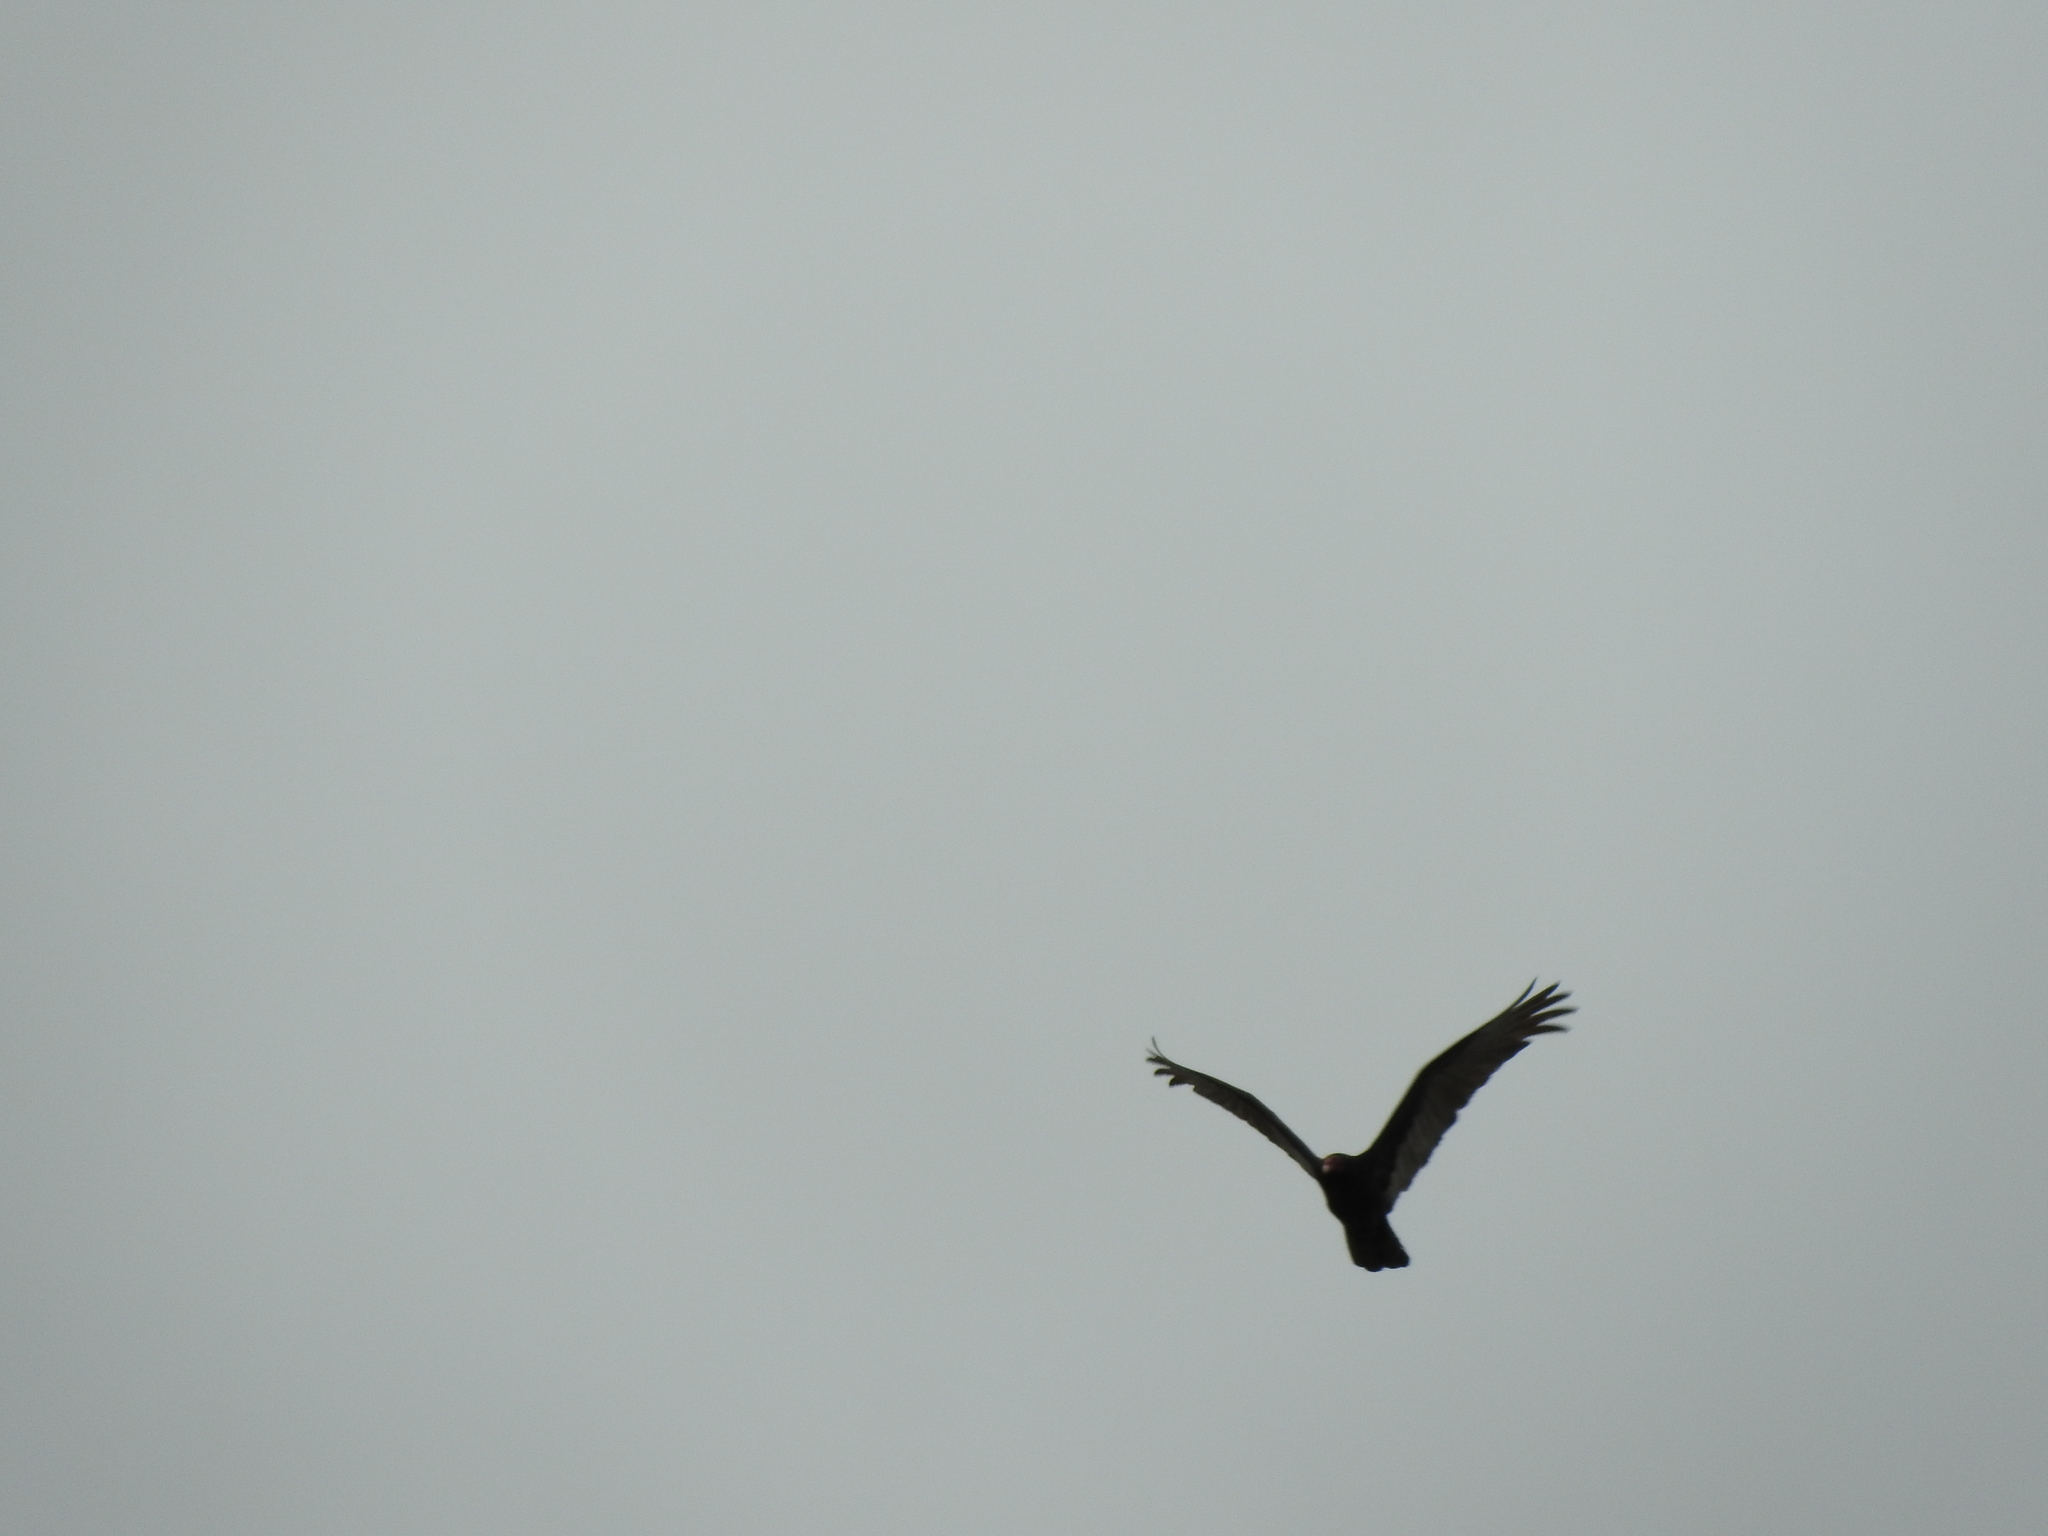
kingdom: Animalia
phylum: Chordata
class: Aves
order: Accipitriformes
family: Cathartidae
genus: Cathartes
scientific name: Cathartes aura
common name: Turkey vulture
